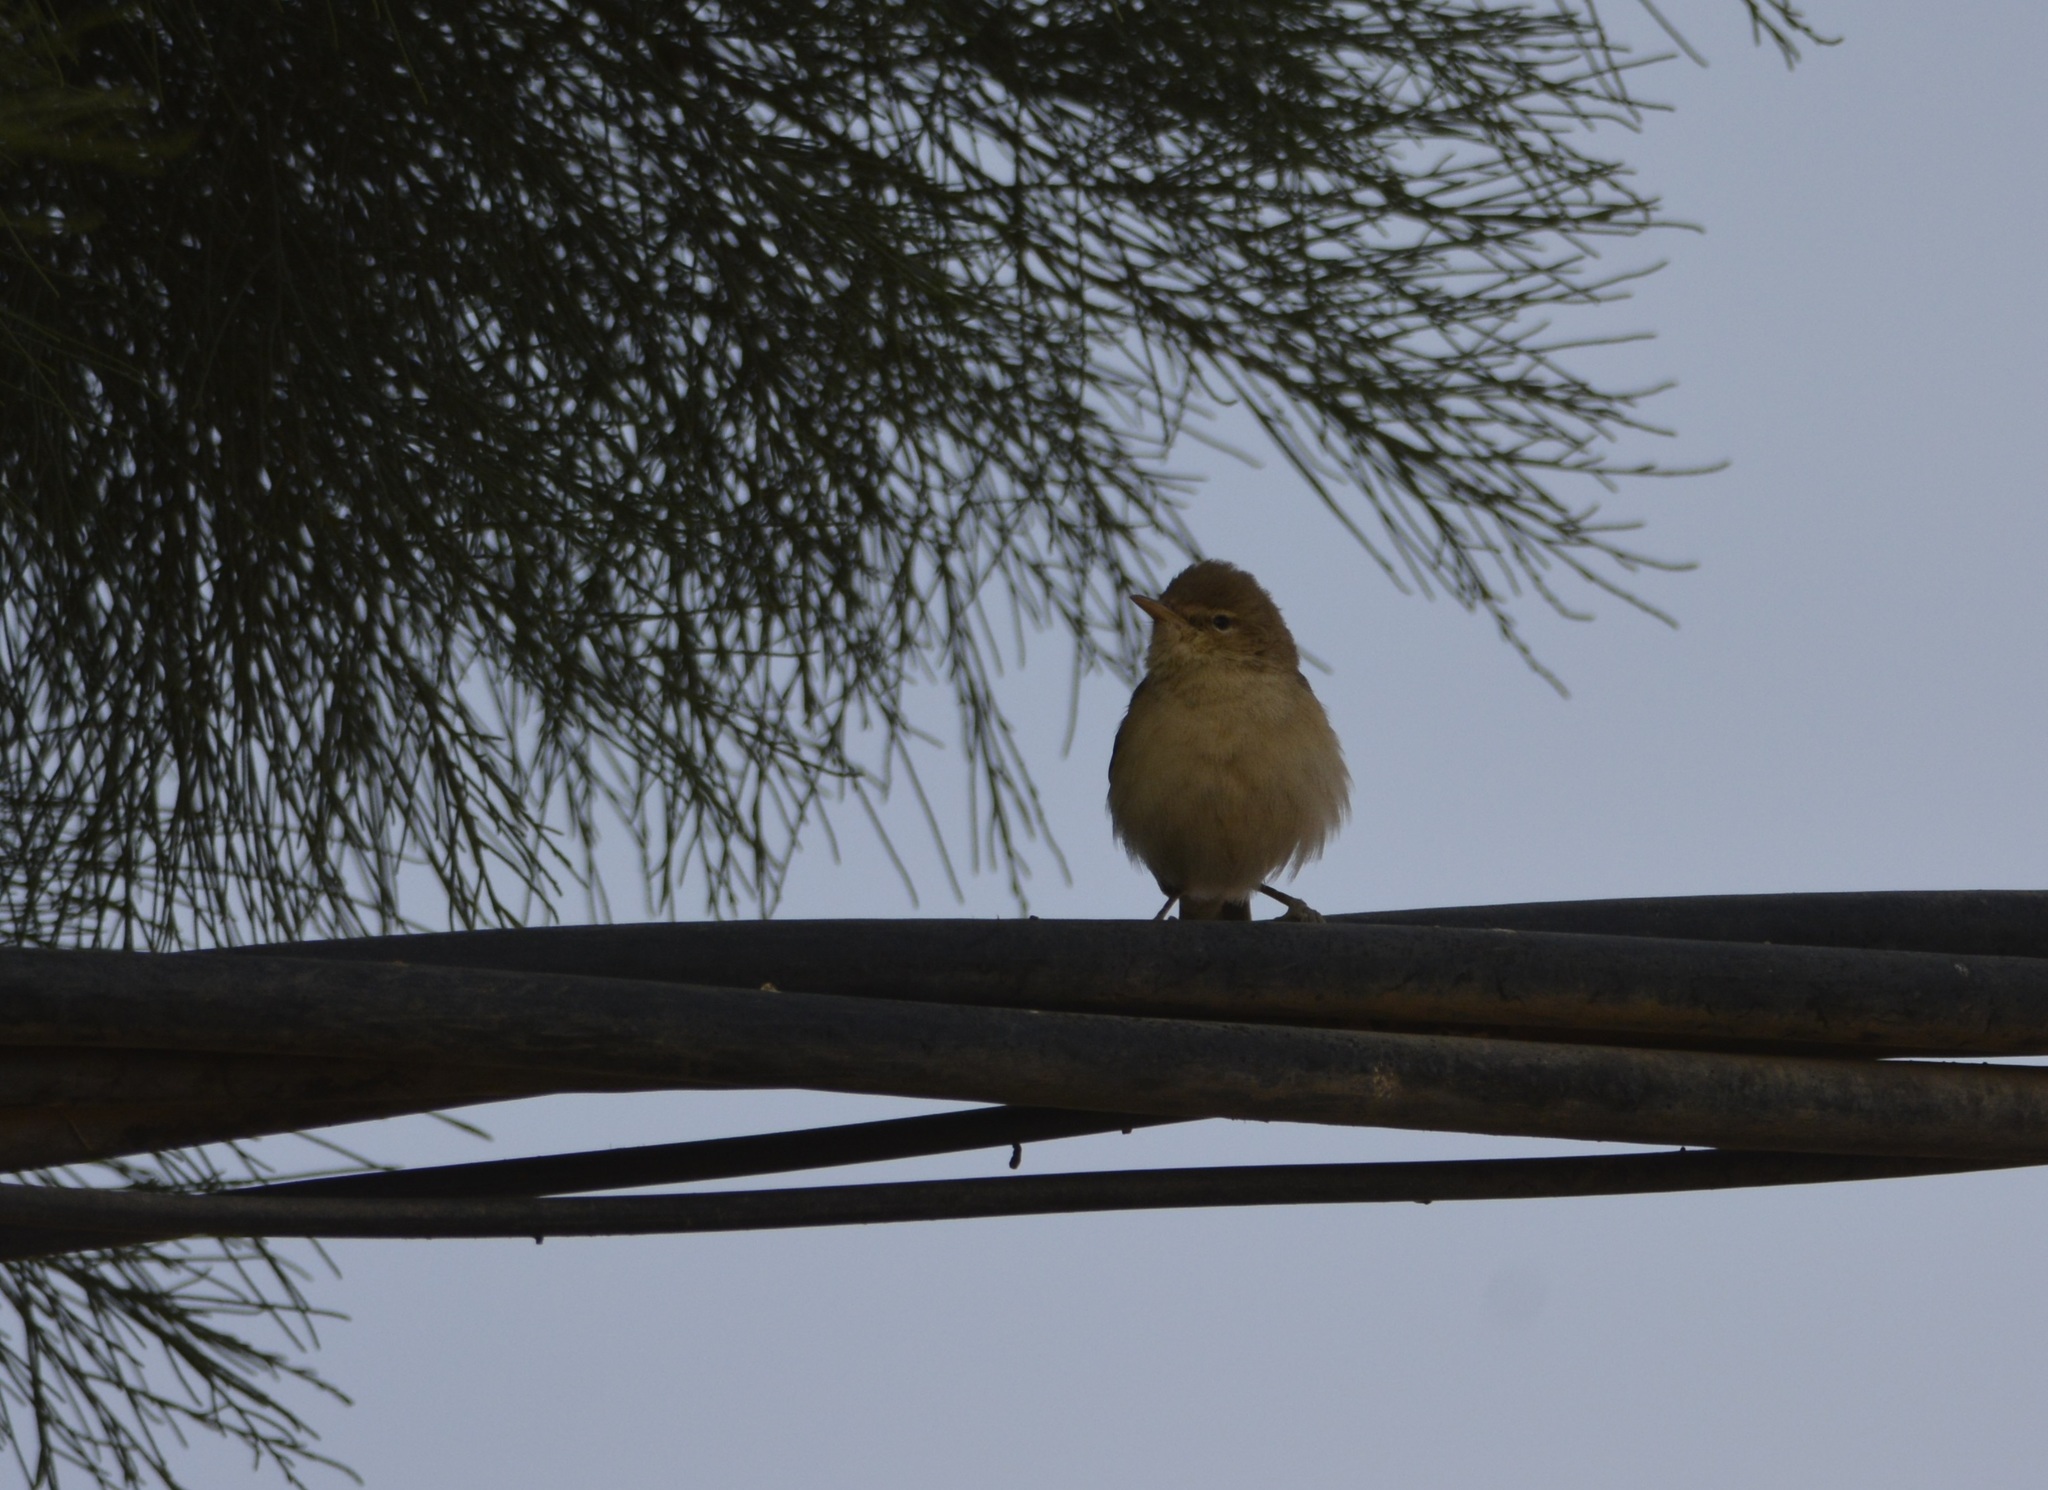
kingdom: Animalia
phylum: Chordata
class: Aves
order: Passeriformes
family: Acrocephalidae
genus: Iduna
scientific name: Iduna pallida
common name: Eastern olivaceous warbler
